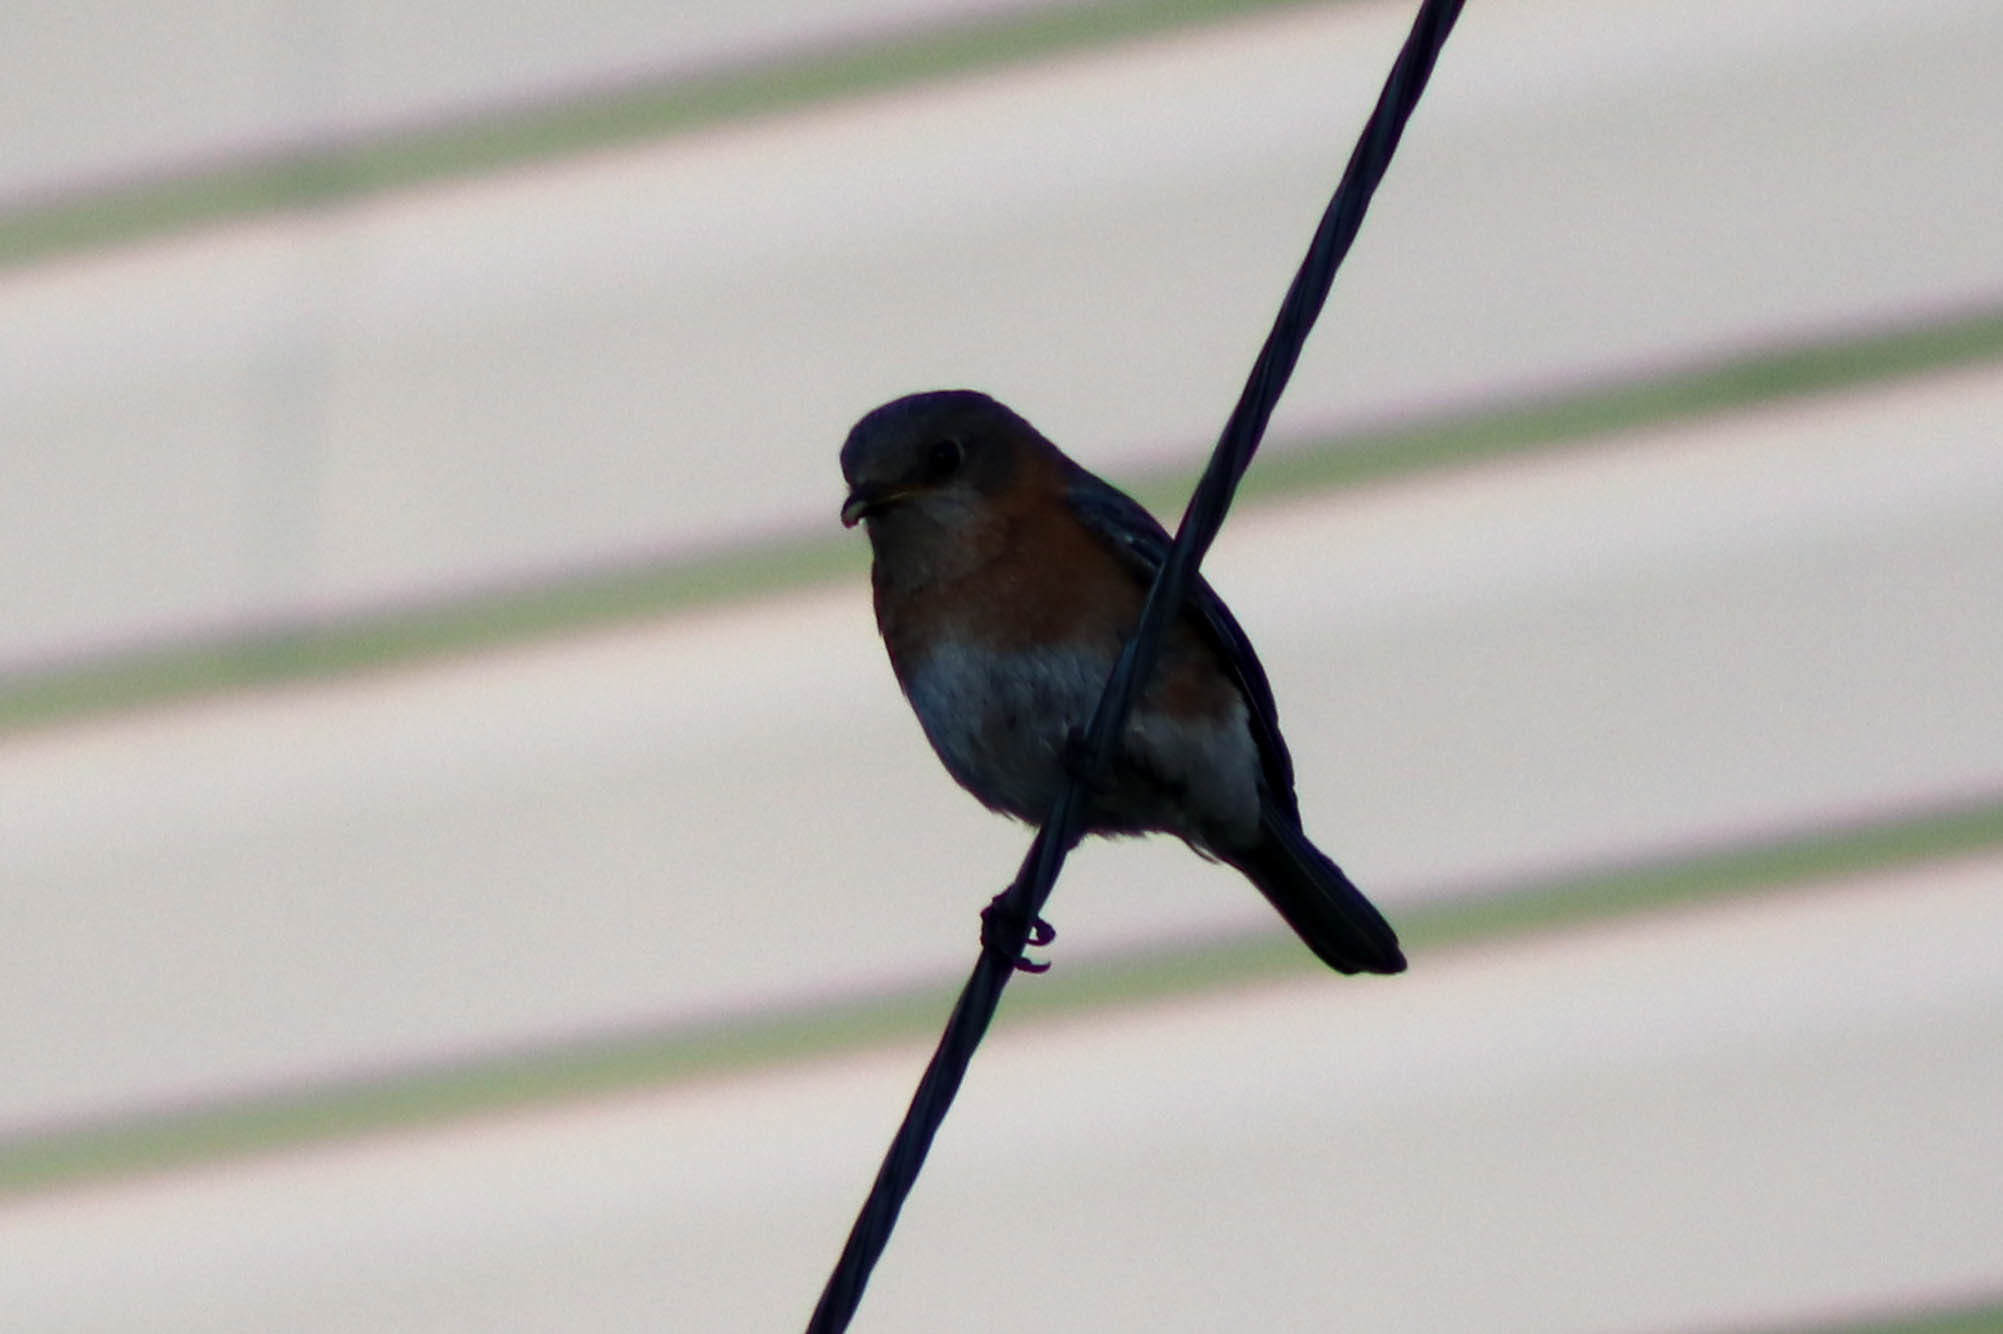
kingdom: Animalia
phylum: Chordata
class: Aves
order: Passeriformes
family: Turdidae
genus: Sialia
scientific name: Sialia sialis
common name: Eastern bluebird
